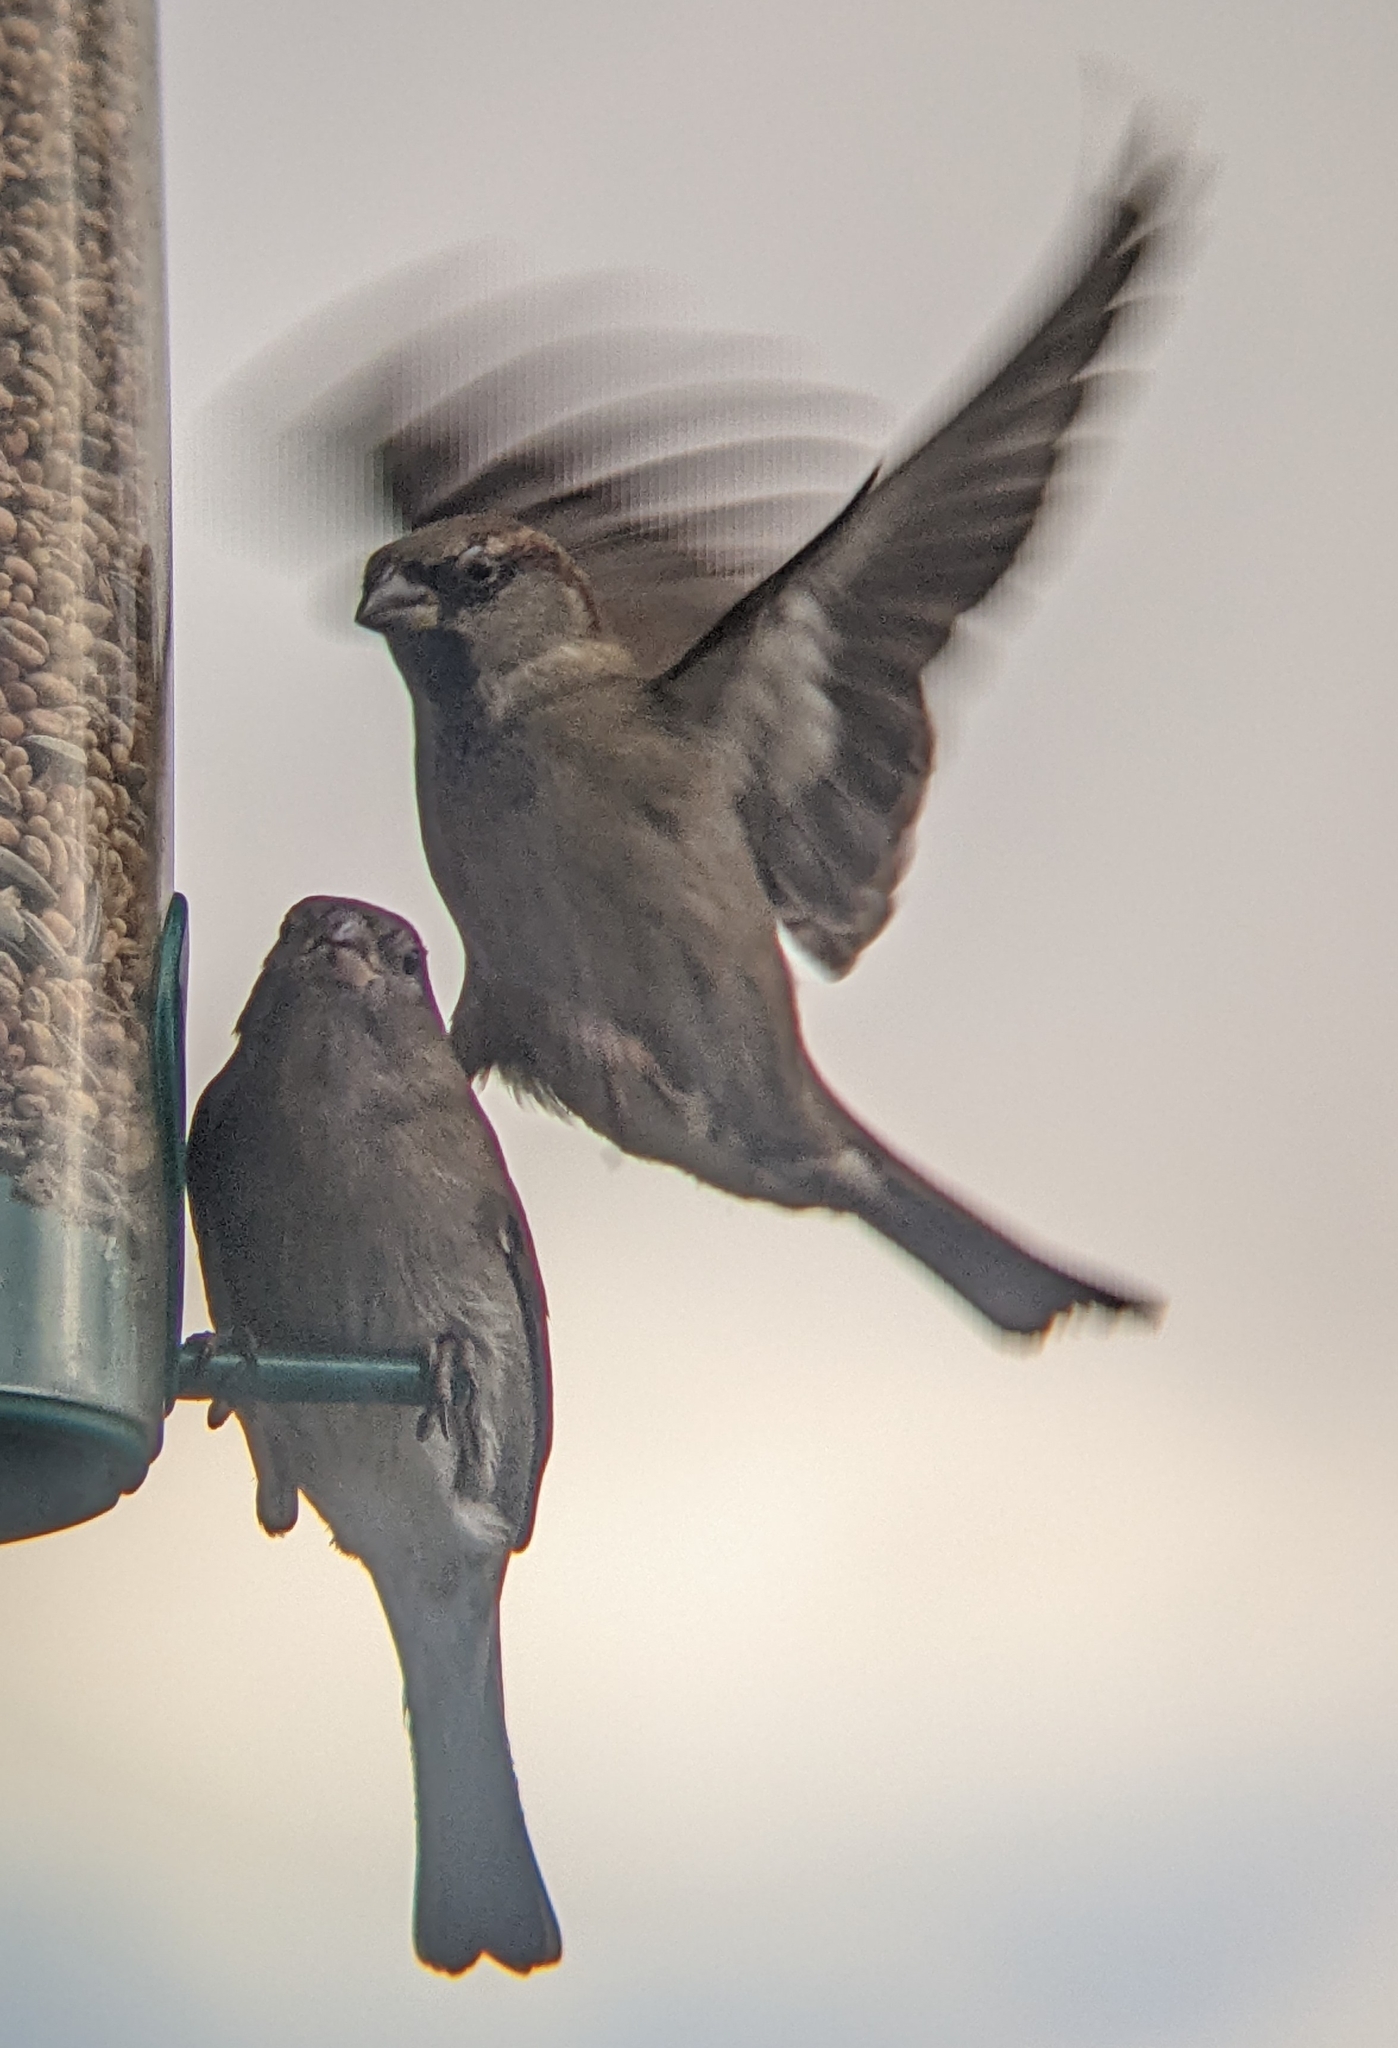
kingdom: Animalia
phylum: Chordata
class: Aves
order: Passeriformes
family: Passeridae
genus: Passer
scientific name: Passer domesticus
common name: House sparrow
